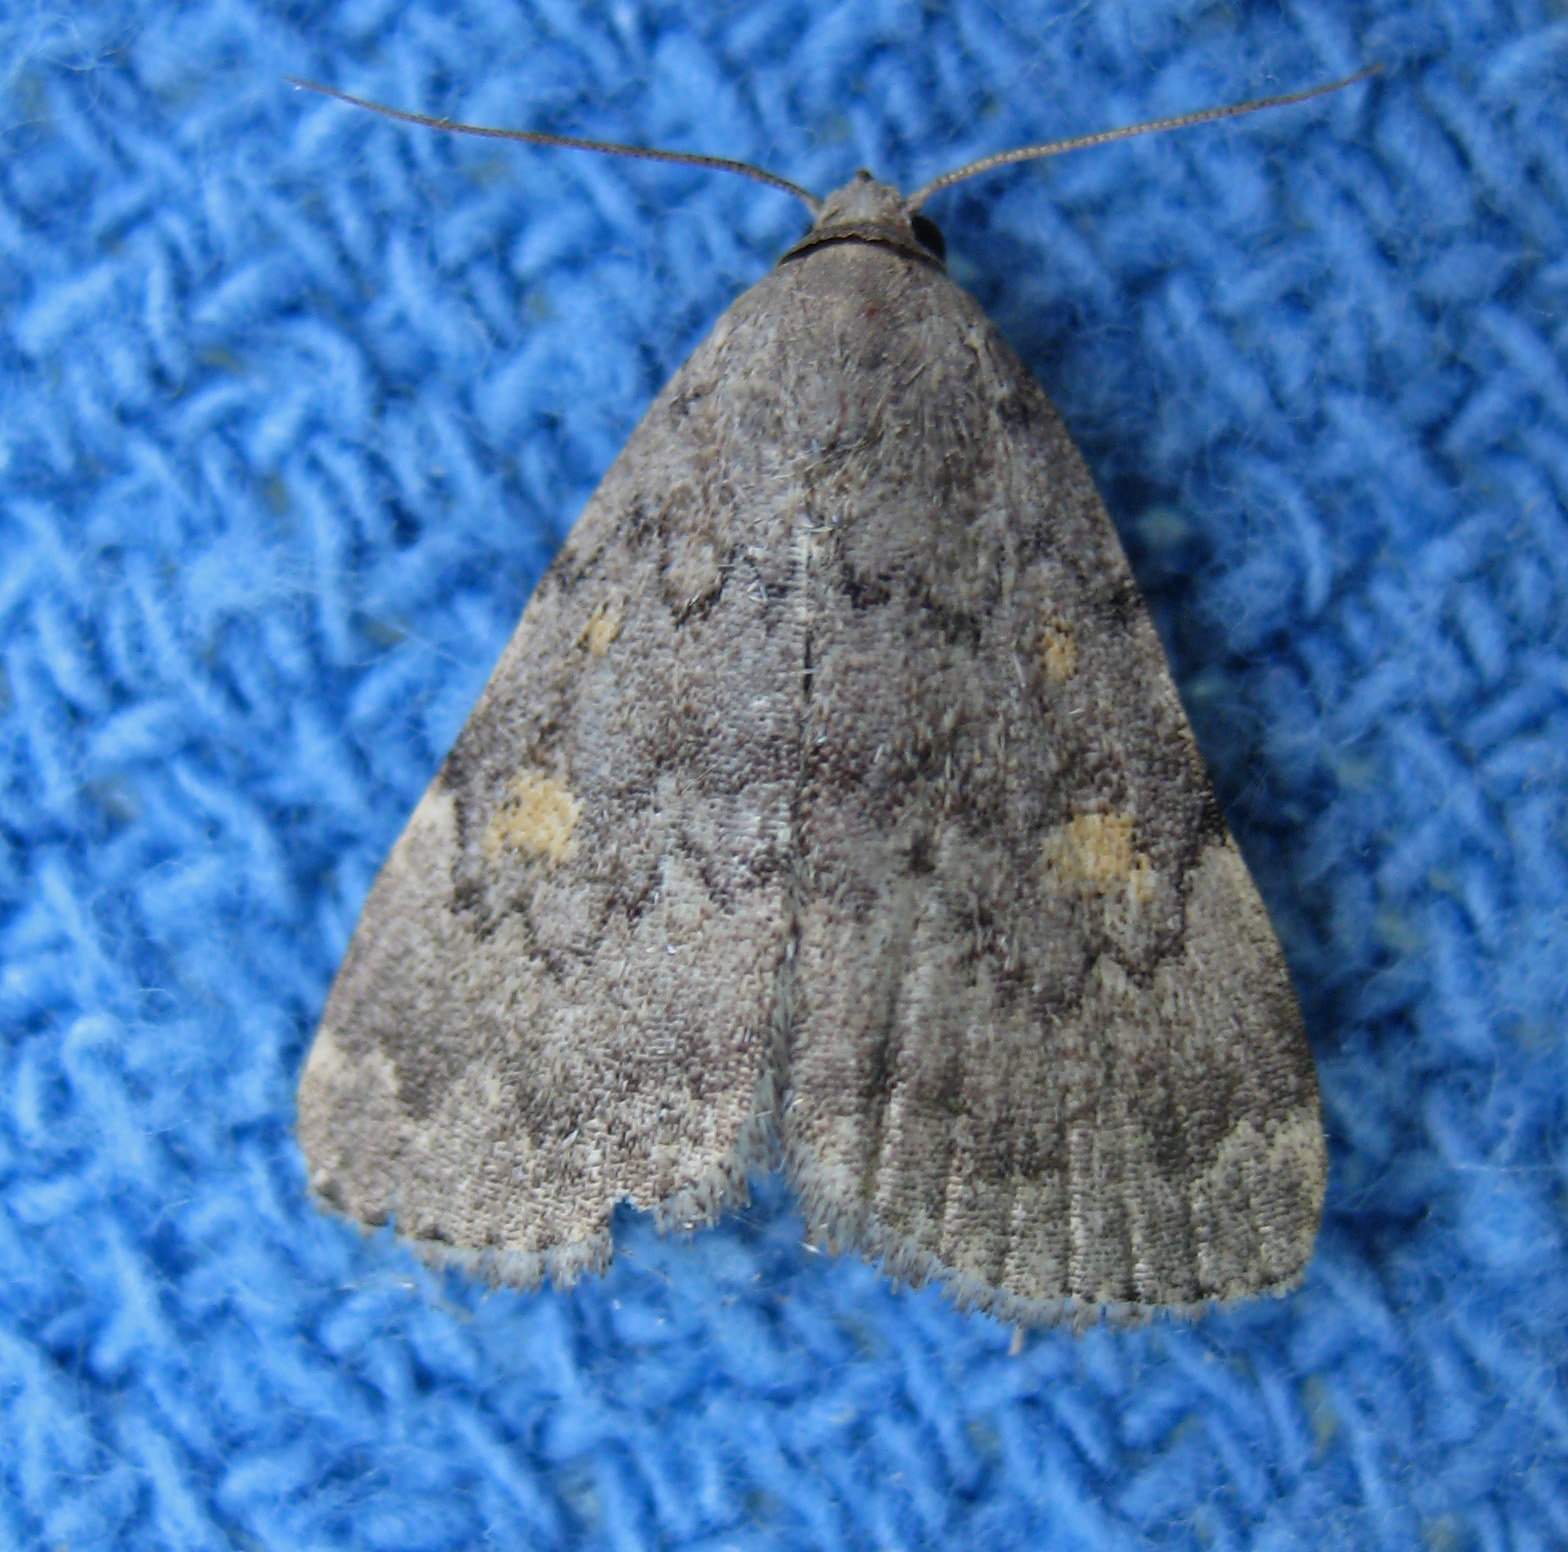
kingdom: Animalia
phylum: Arthropoda
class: Insecta
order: Lepidoptera
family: Erebidae
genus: Idia
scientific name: Idia aemula
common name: Common idia moth
